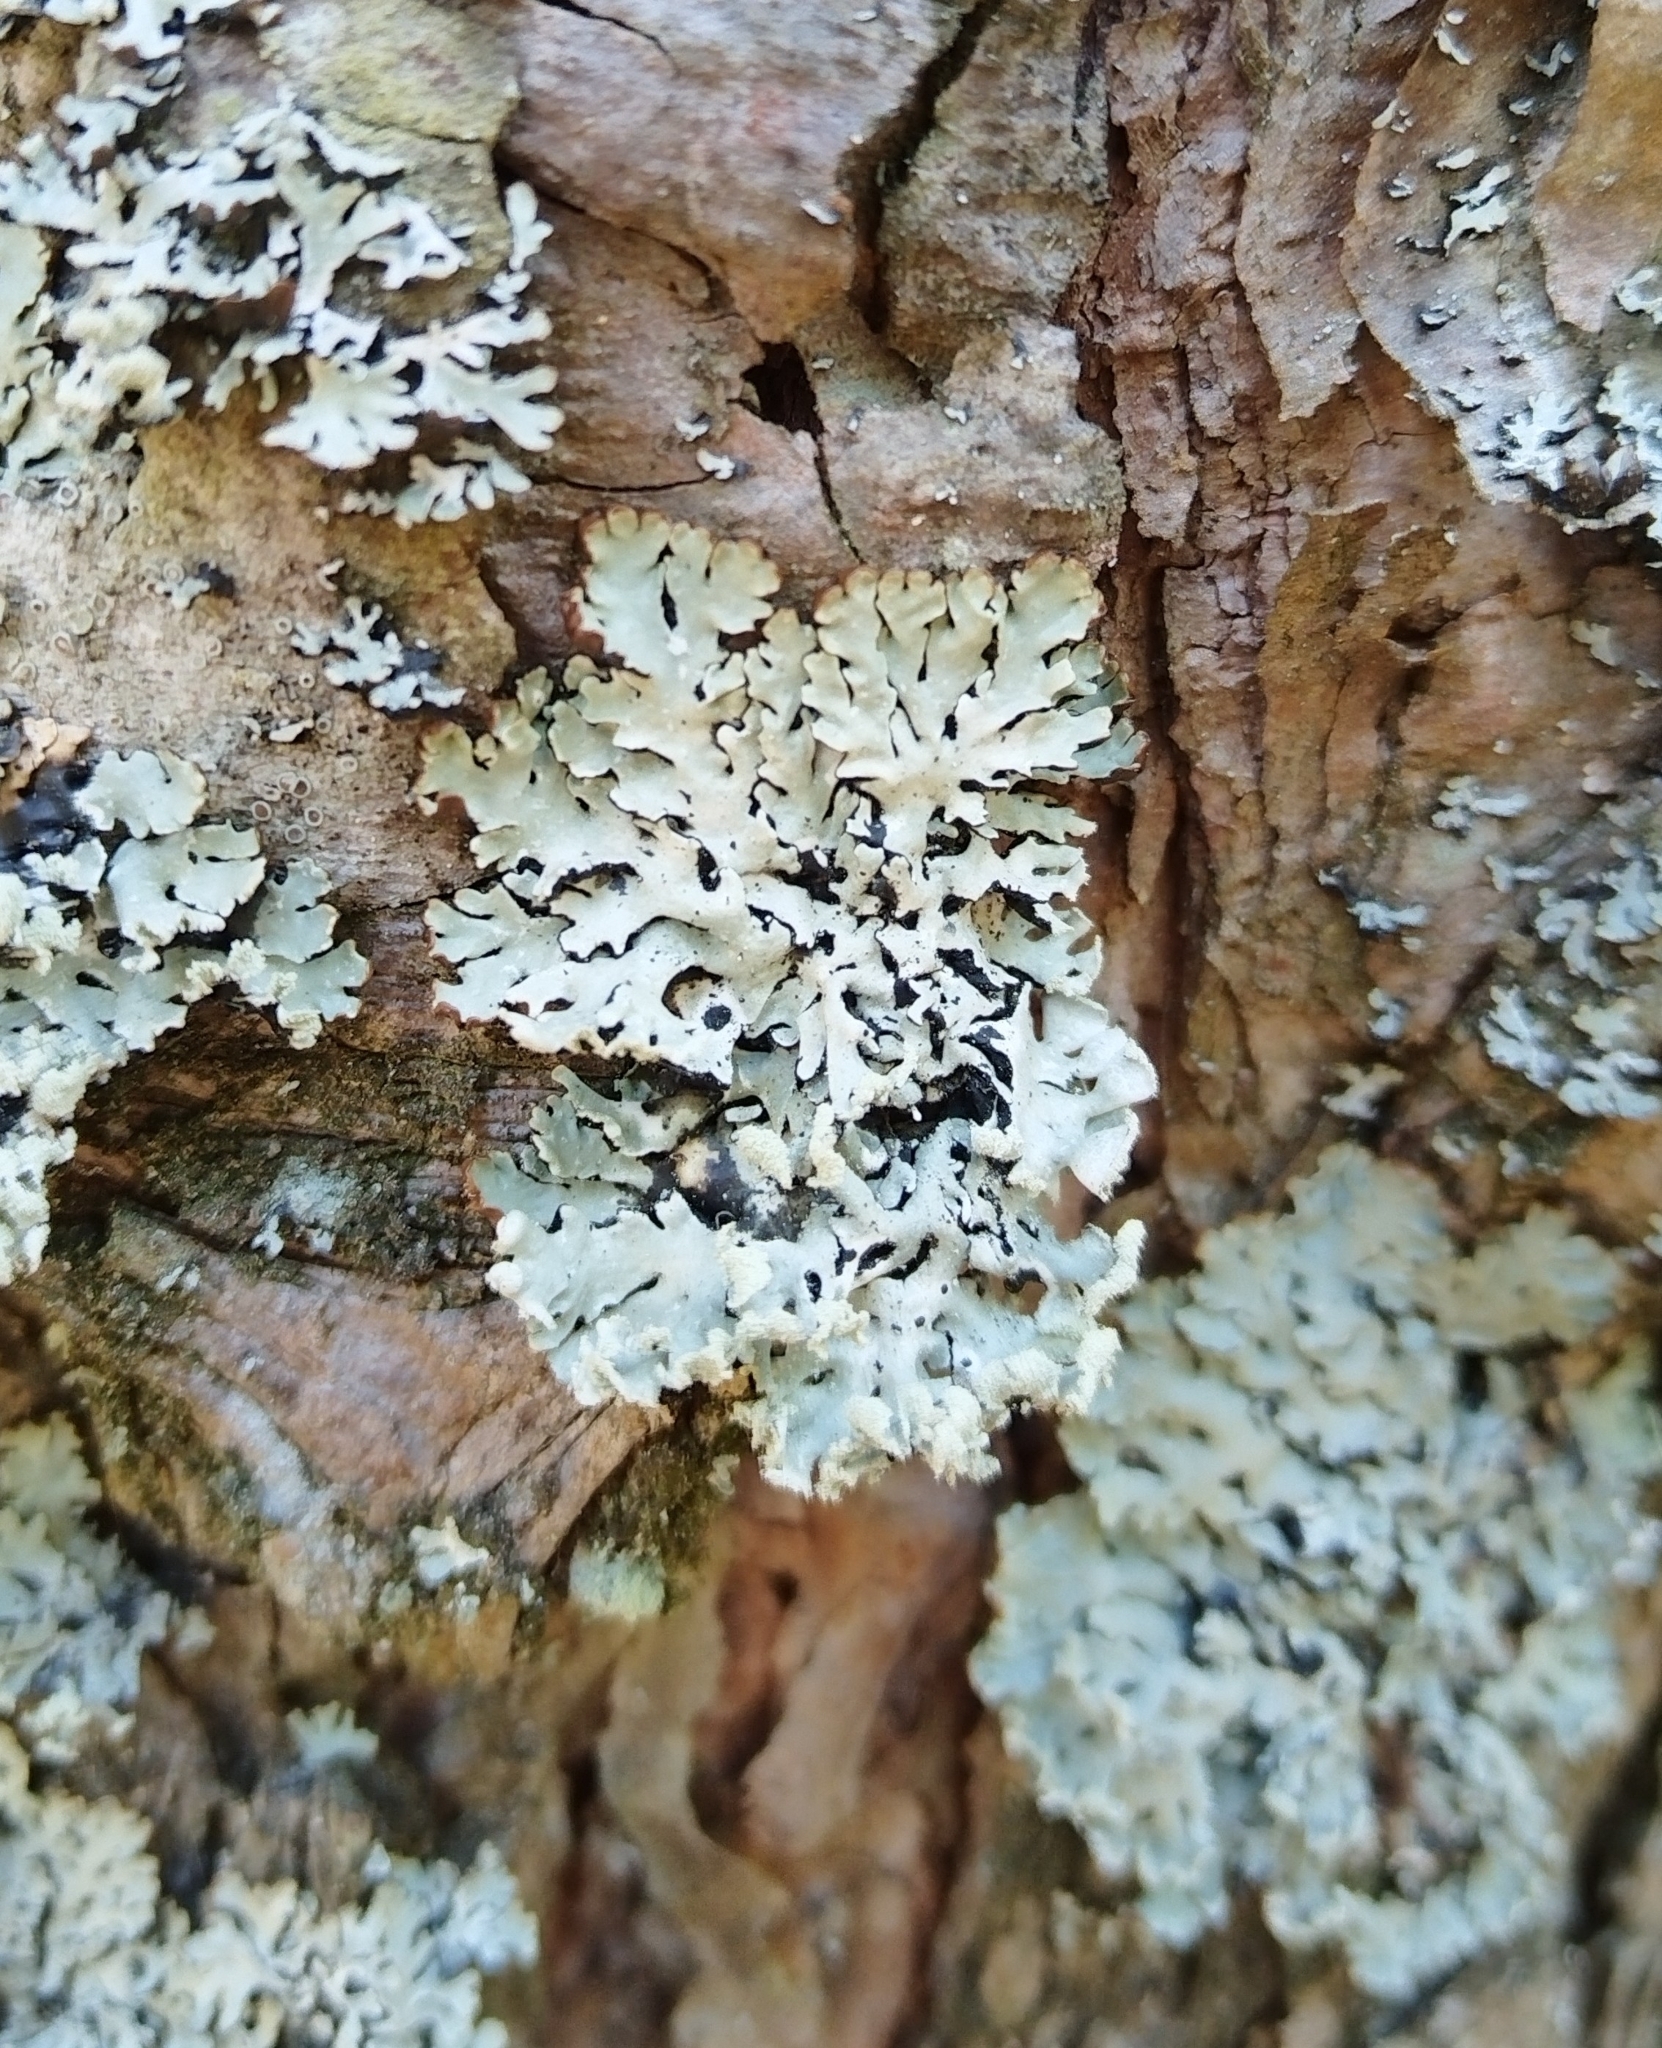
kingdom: Fungi
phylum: Ascomycota
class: Lecanoromycetes
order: Lecanorales
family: Parmeliaceae
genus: Hypogymnia
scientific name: Hypogymnia physodes
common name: Dark crottle
